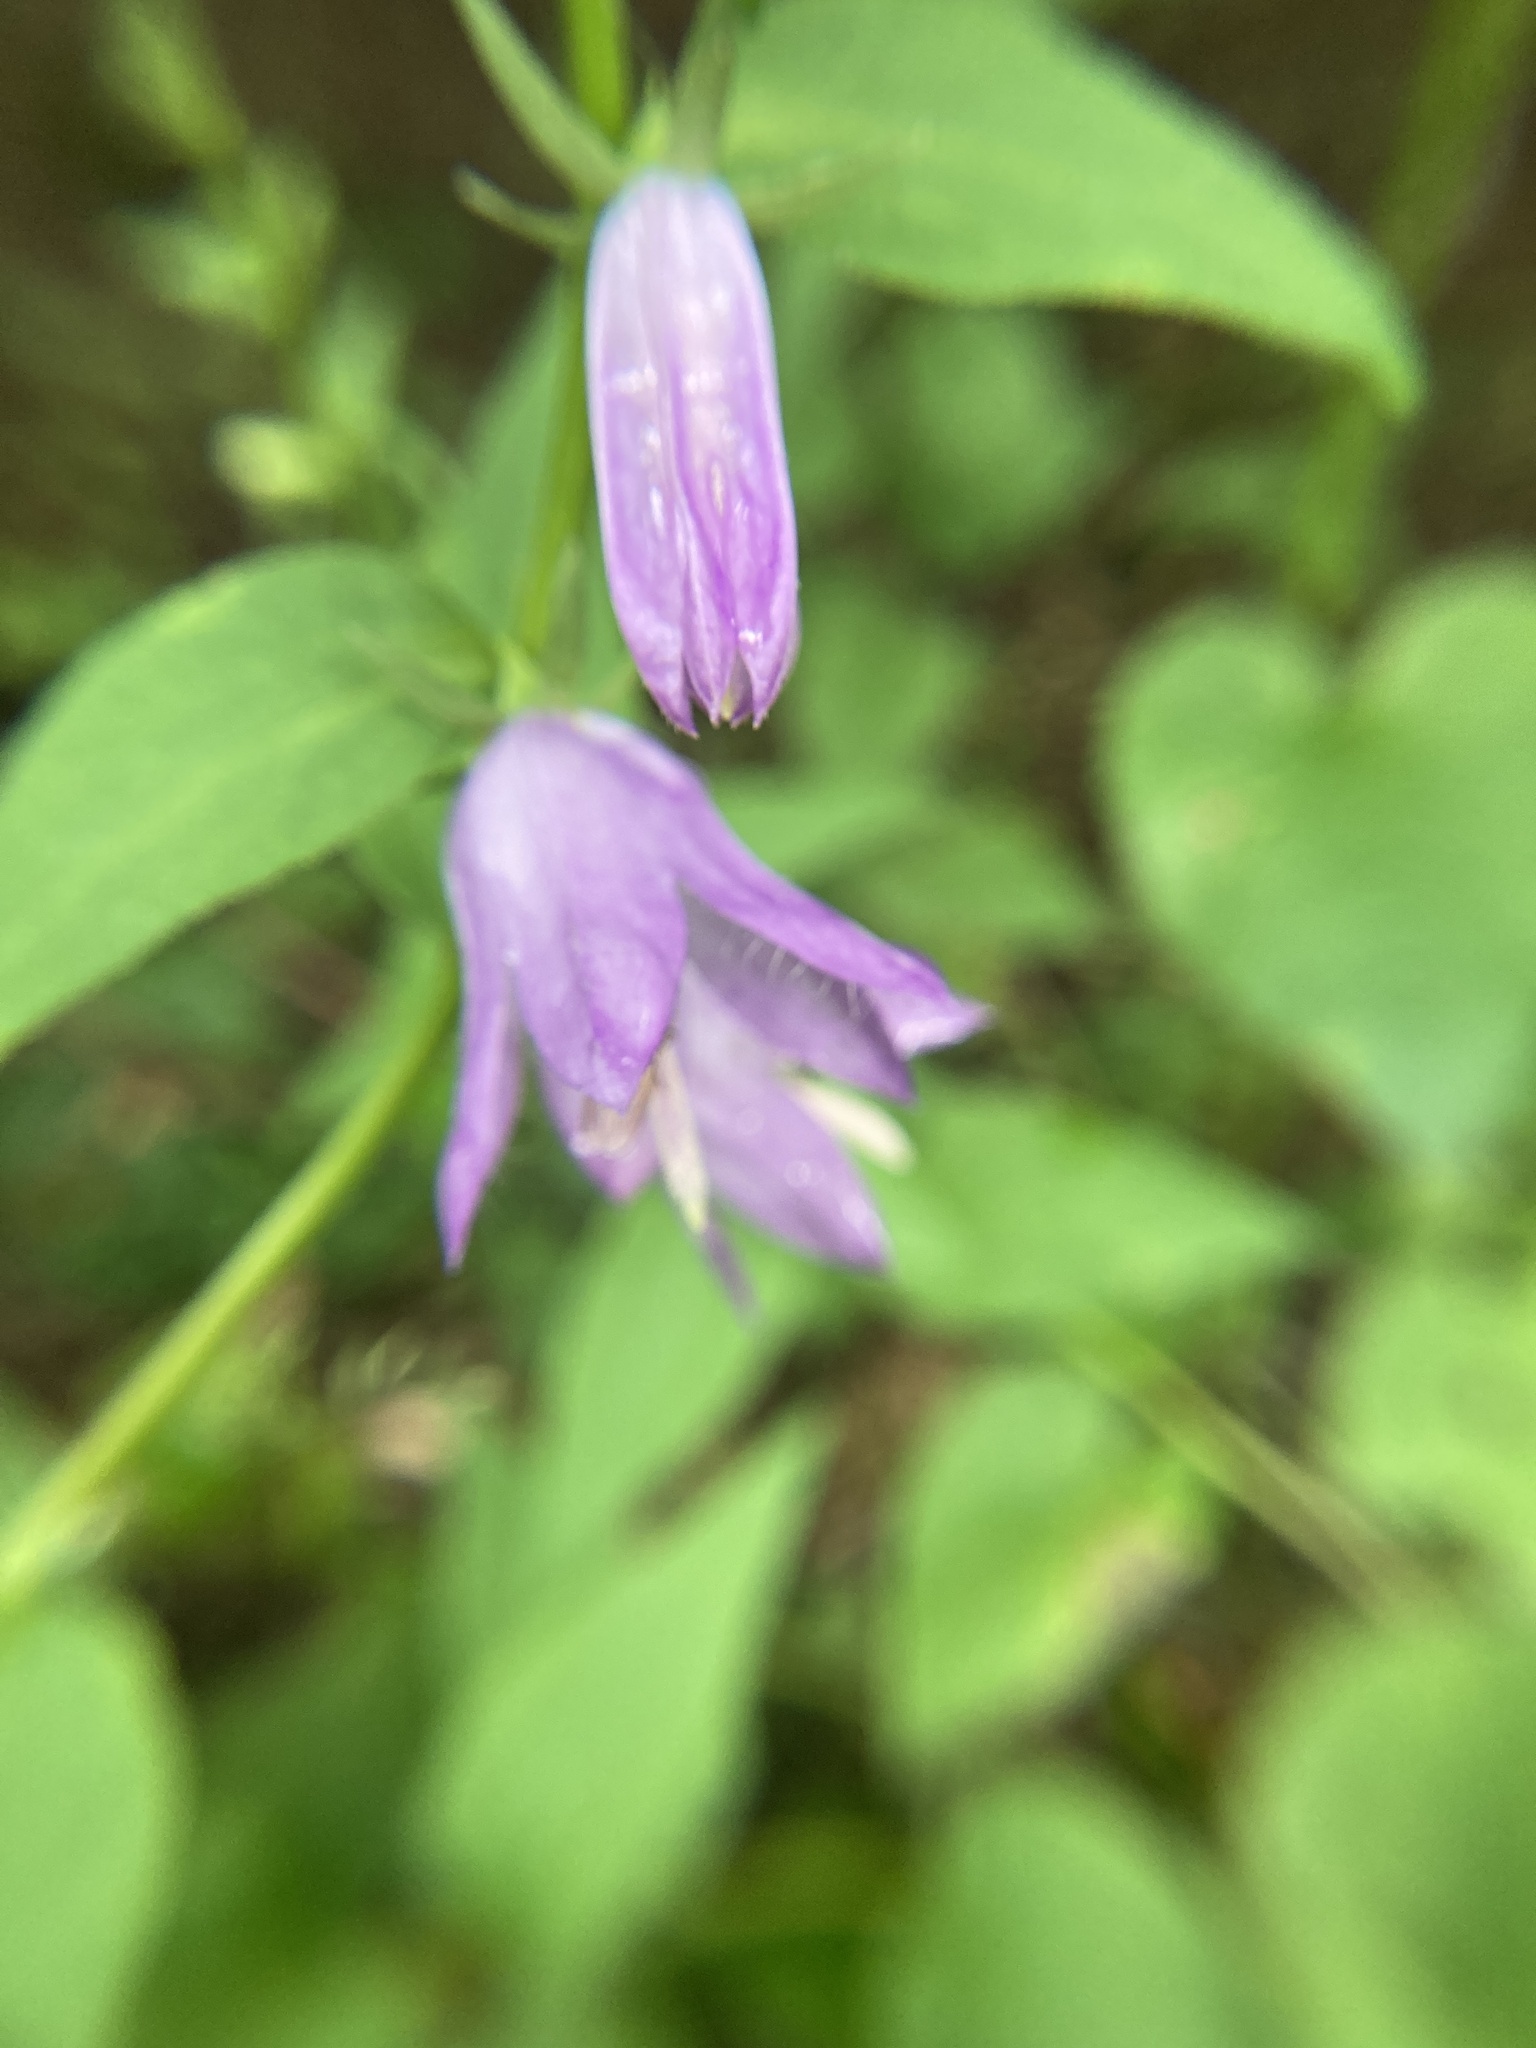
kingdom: Plantae
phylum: Tracheophyta
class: Magnoliopsida
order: Asterales
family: Campanulaceae
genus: Campanula
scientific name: Campanula rapunculoides
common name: Creeping bellflower
